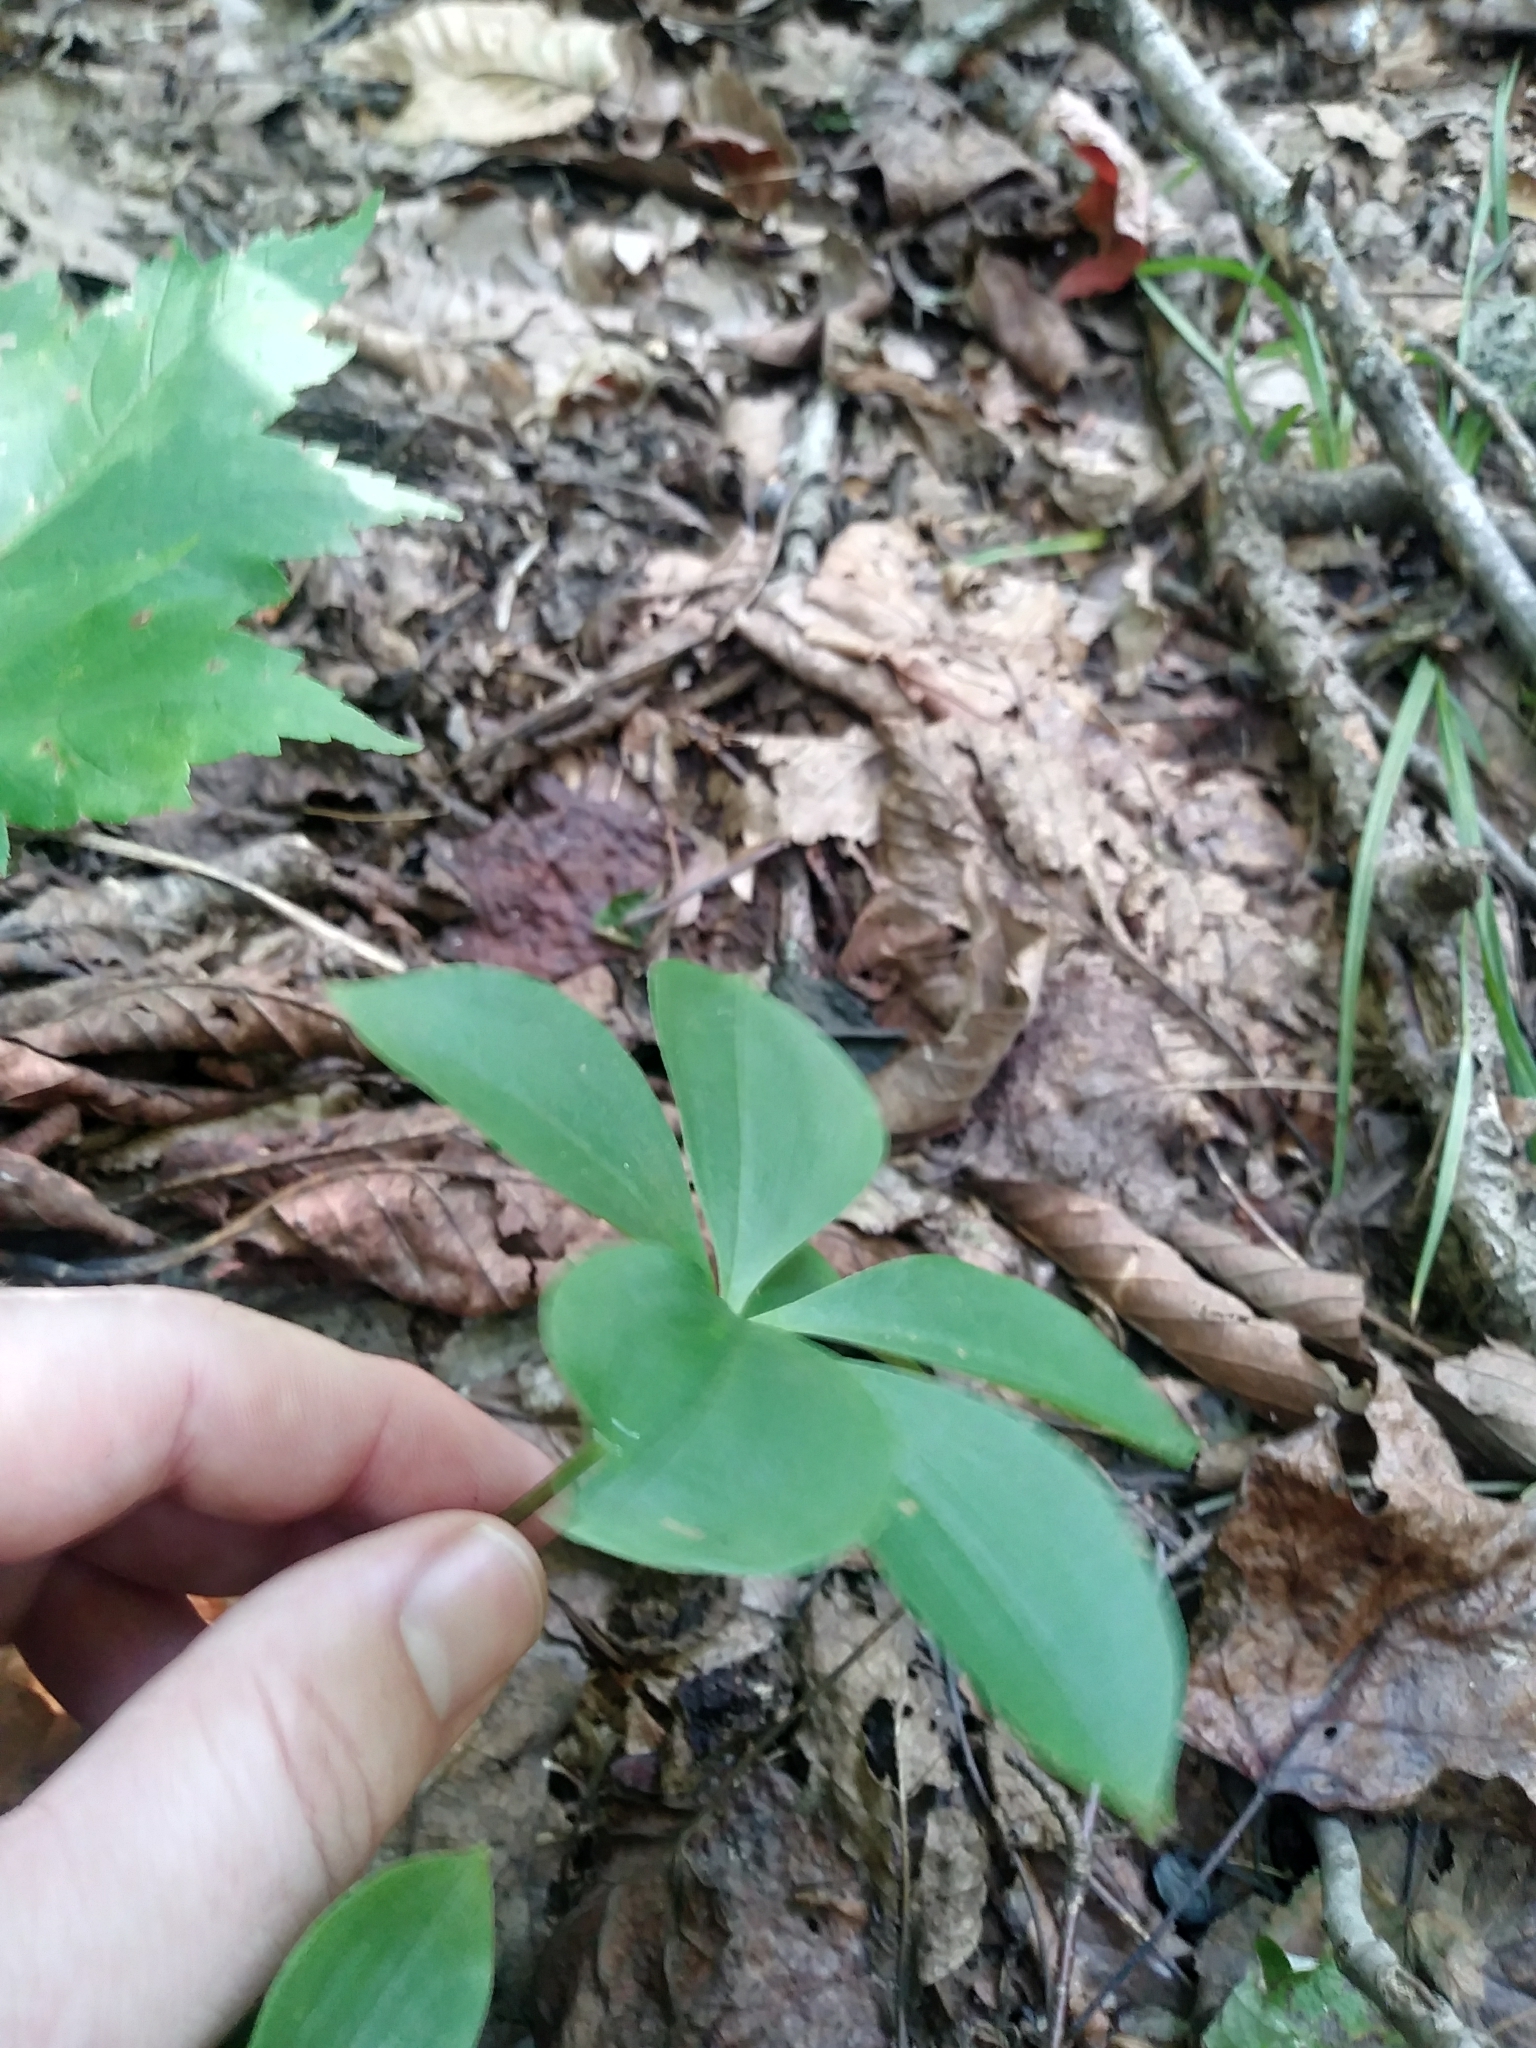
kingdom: Plantae
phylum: Tracheophyta
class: Liliopsida
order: Asparagales
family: Orchidaceae
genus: Isotria
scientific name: Isotria verticillata
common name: Large whorled pogonia
